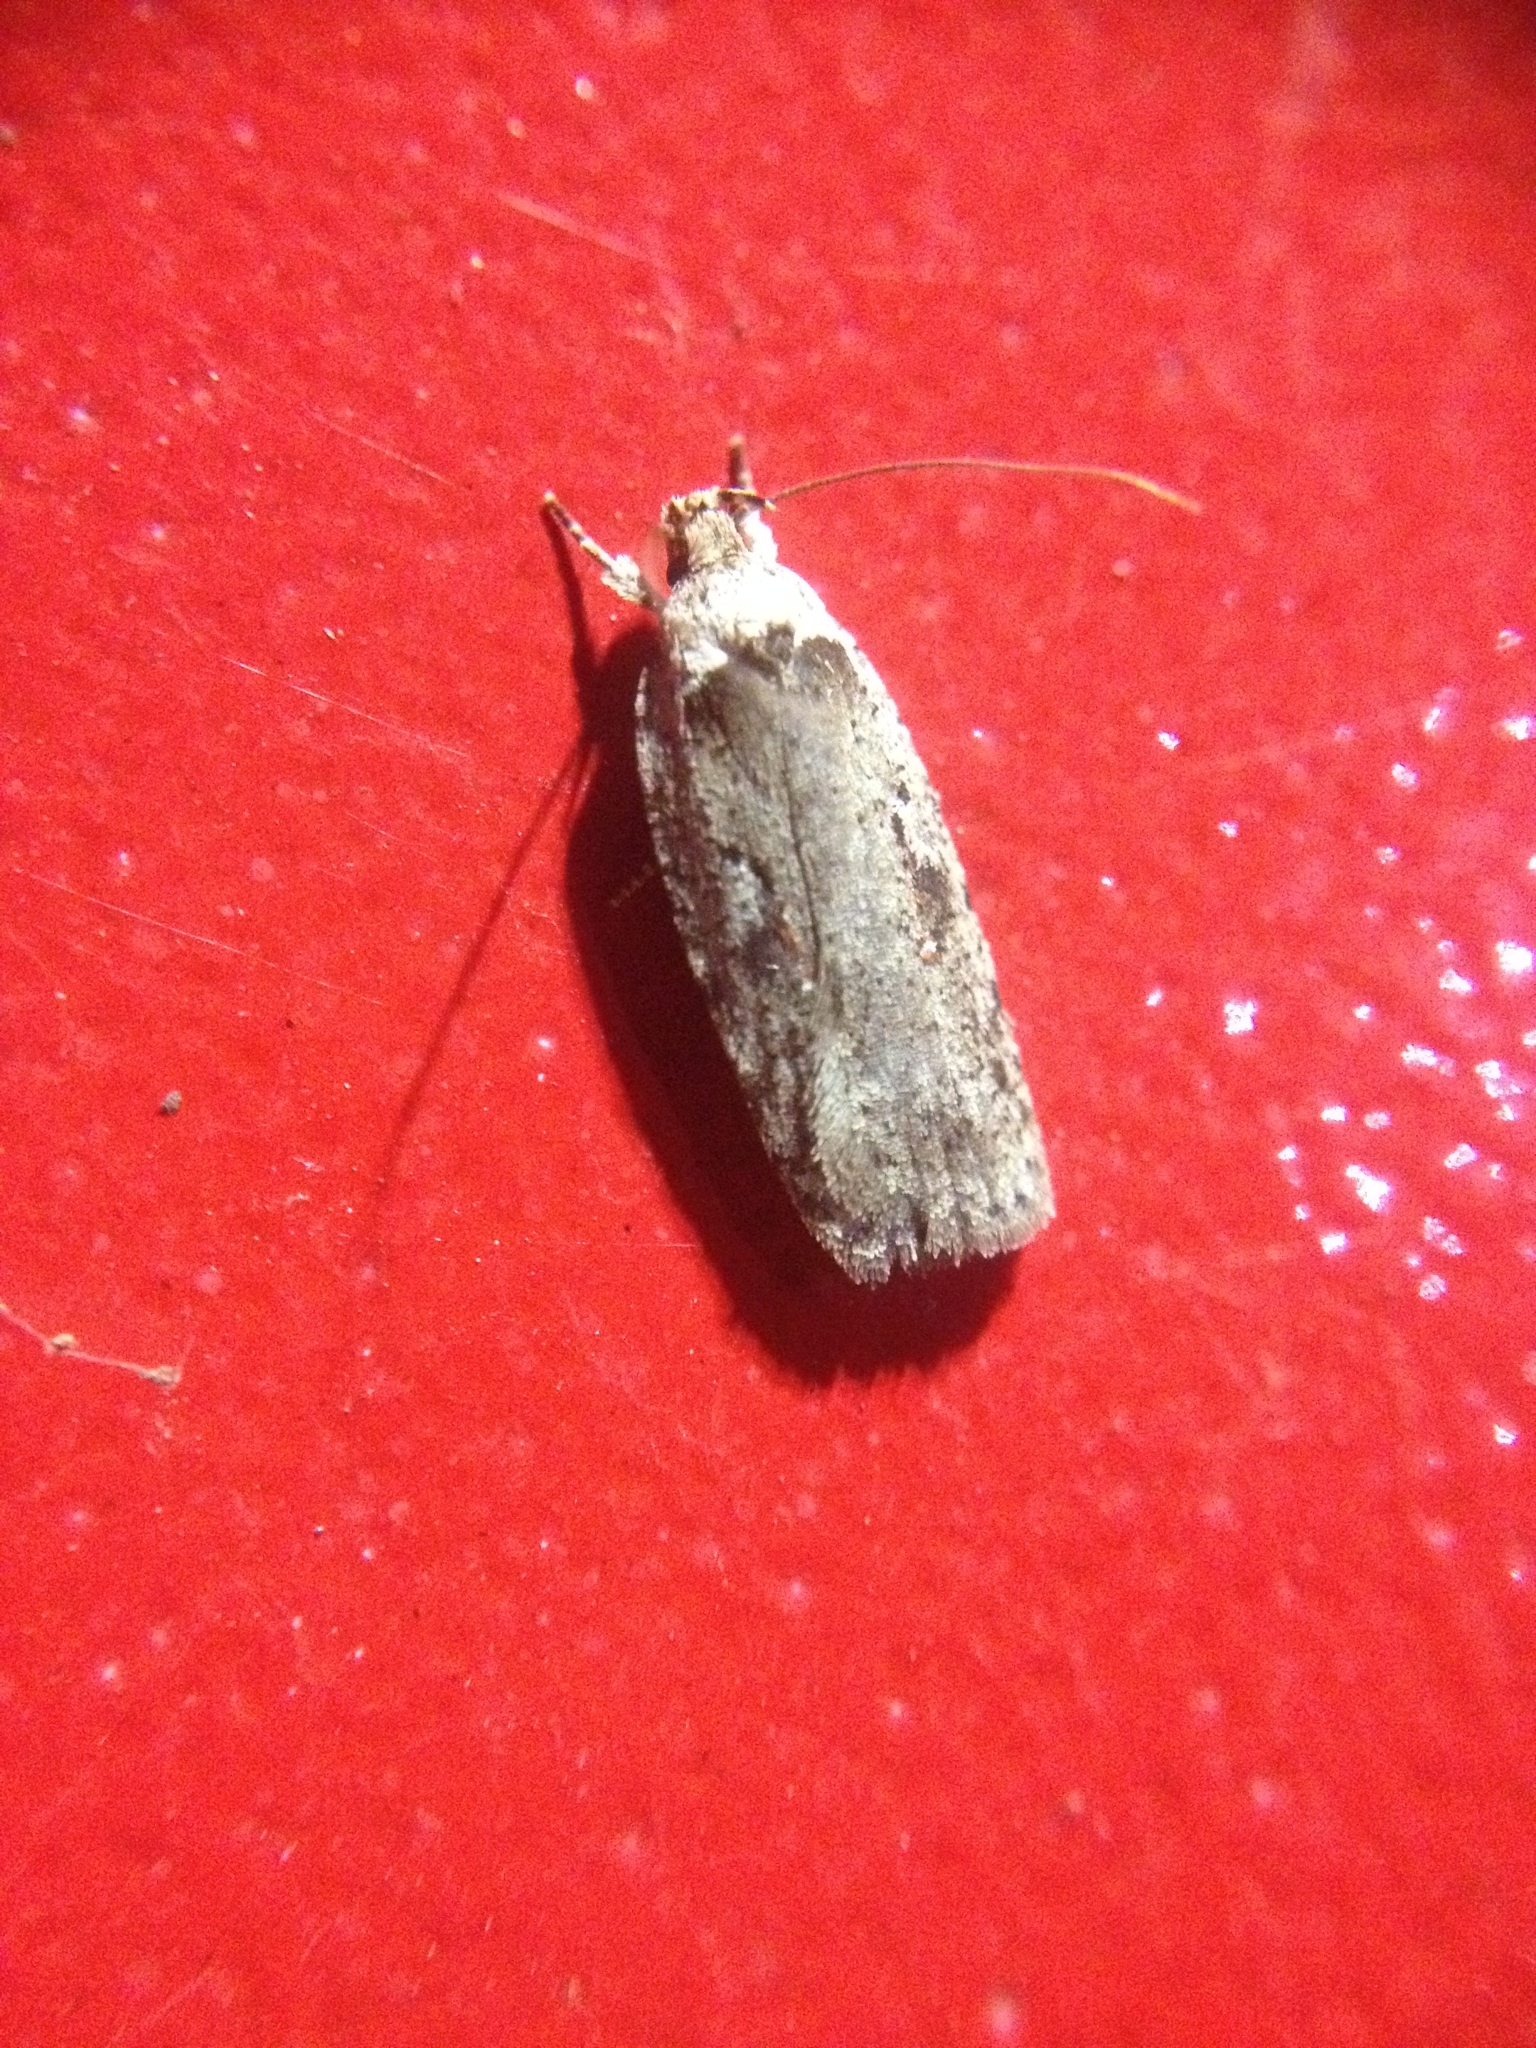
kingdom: Animalia
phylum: Arthropoda
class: Insecta
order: Lepidoptera
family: Depressariidae
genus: Agonopterix
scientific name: Agonopterix ocellana
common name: Red-letter flat-body
